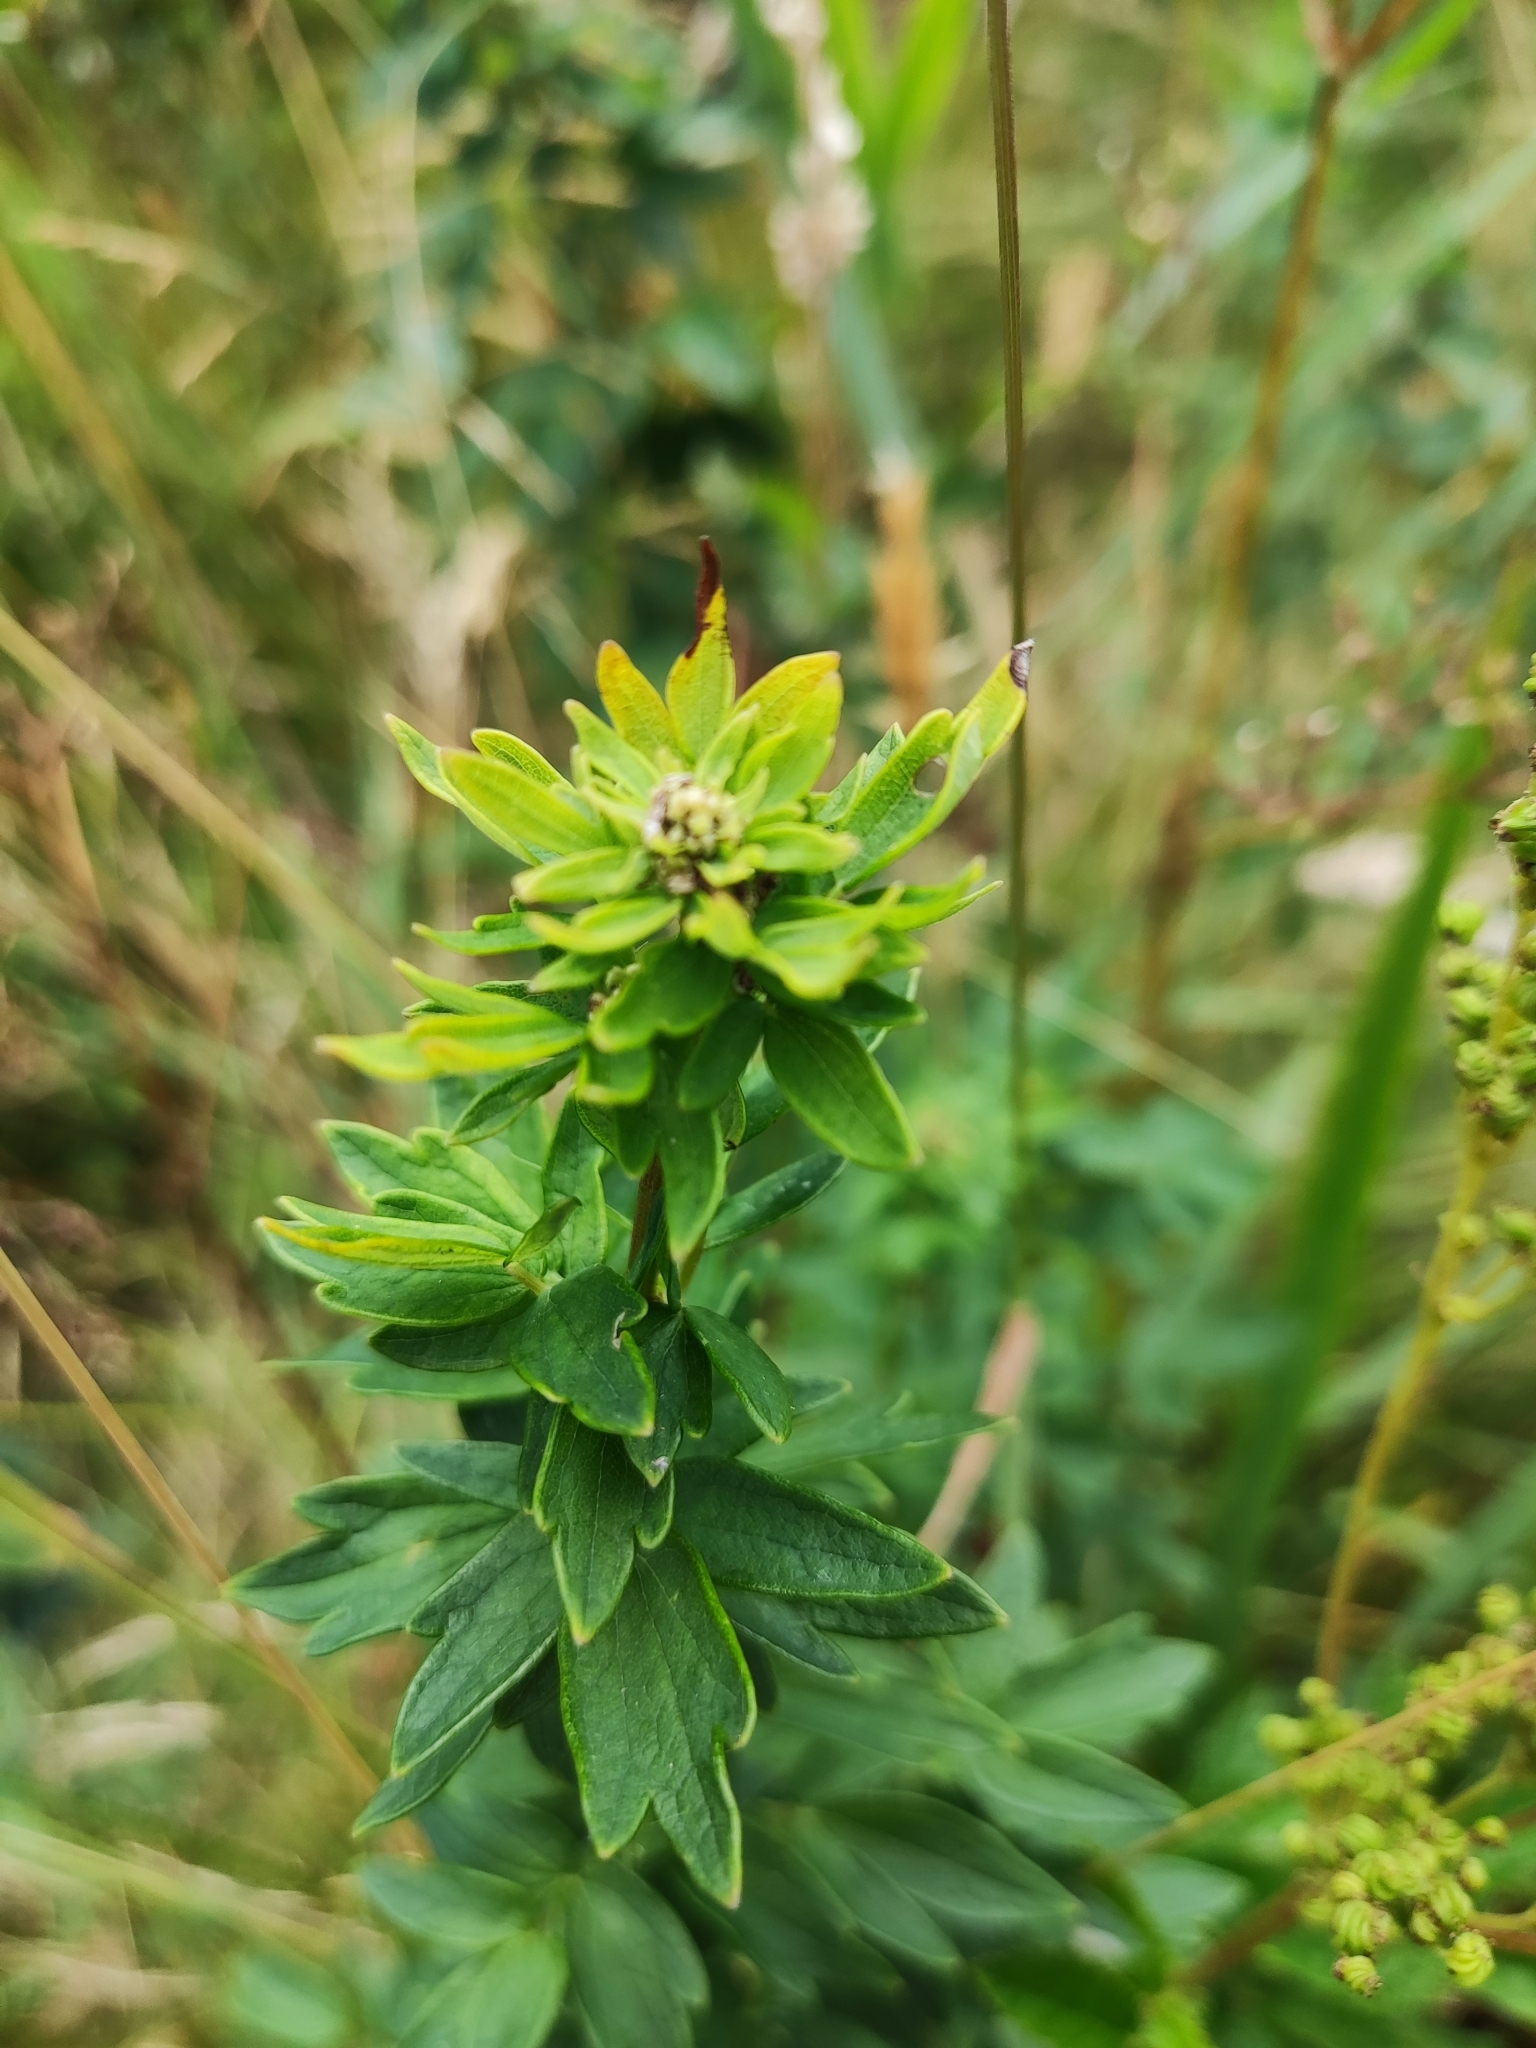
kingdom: Plantae
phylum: Tracheophyta
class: Magnoliopsida
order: Ranunculales
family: Ranunculaceae
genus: Thalictrum
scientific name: Thalictrum flavum
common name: Common meadow-rue
